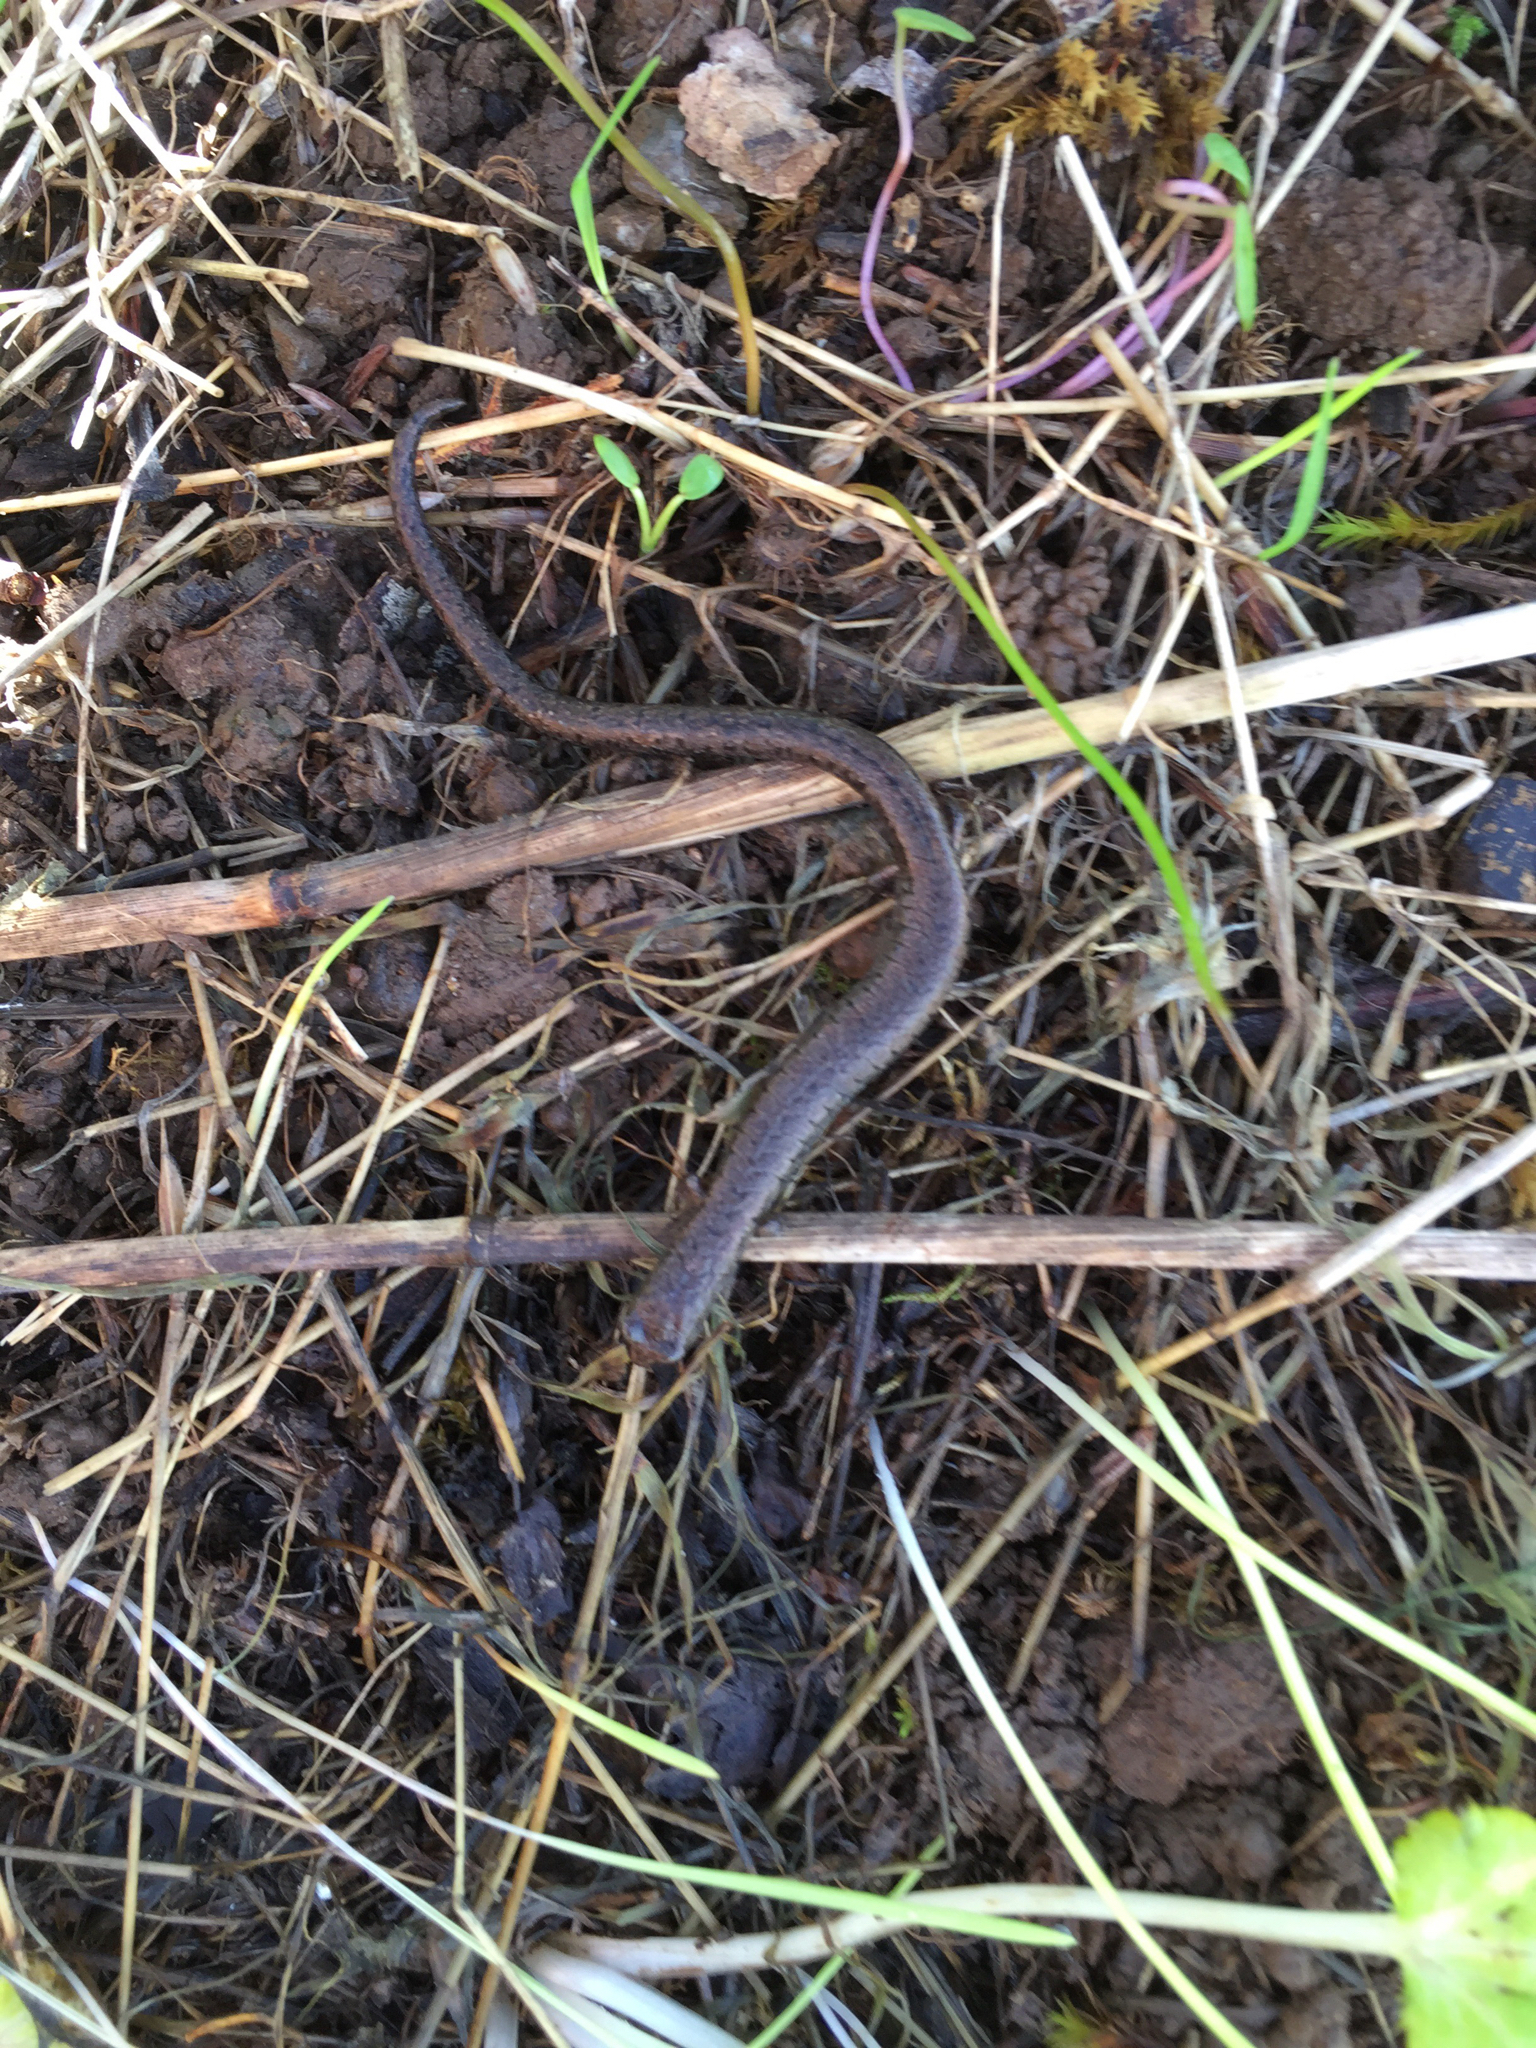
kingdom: Animalia
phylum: Chordata
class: Amphibia
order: Caudata
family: Plethodontidae
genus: Batrachoseps
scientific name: Batrachoseps attenuatus
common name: California slender salamander
